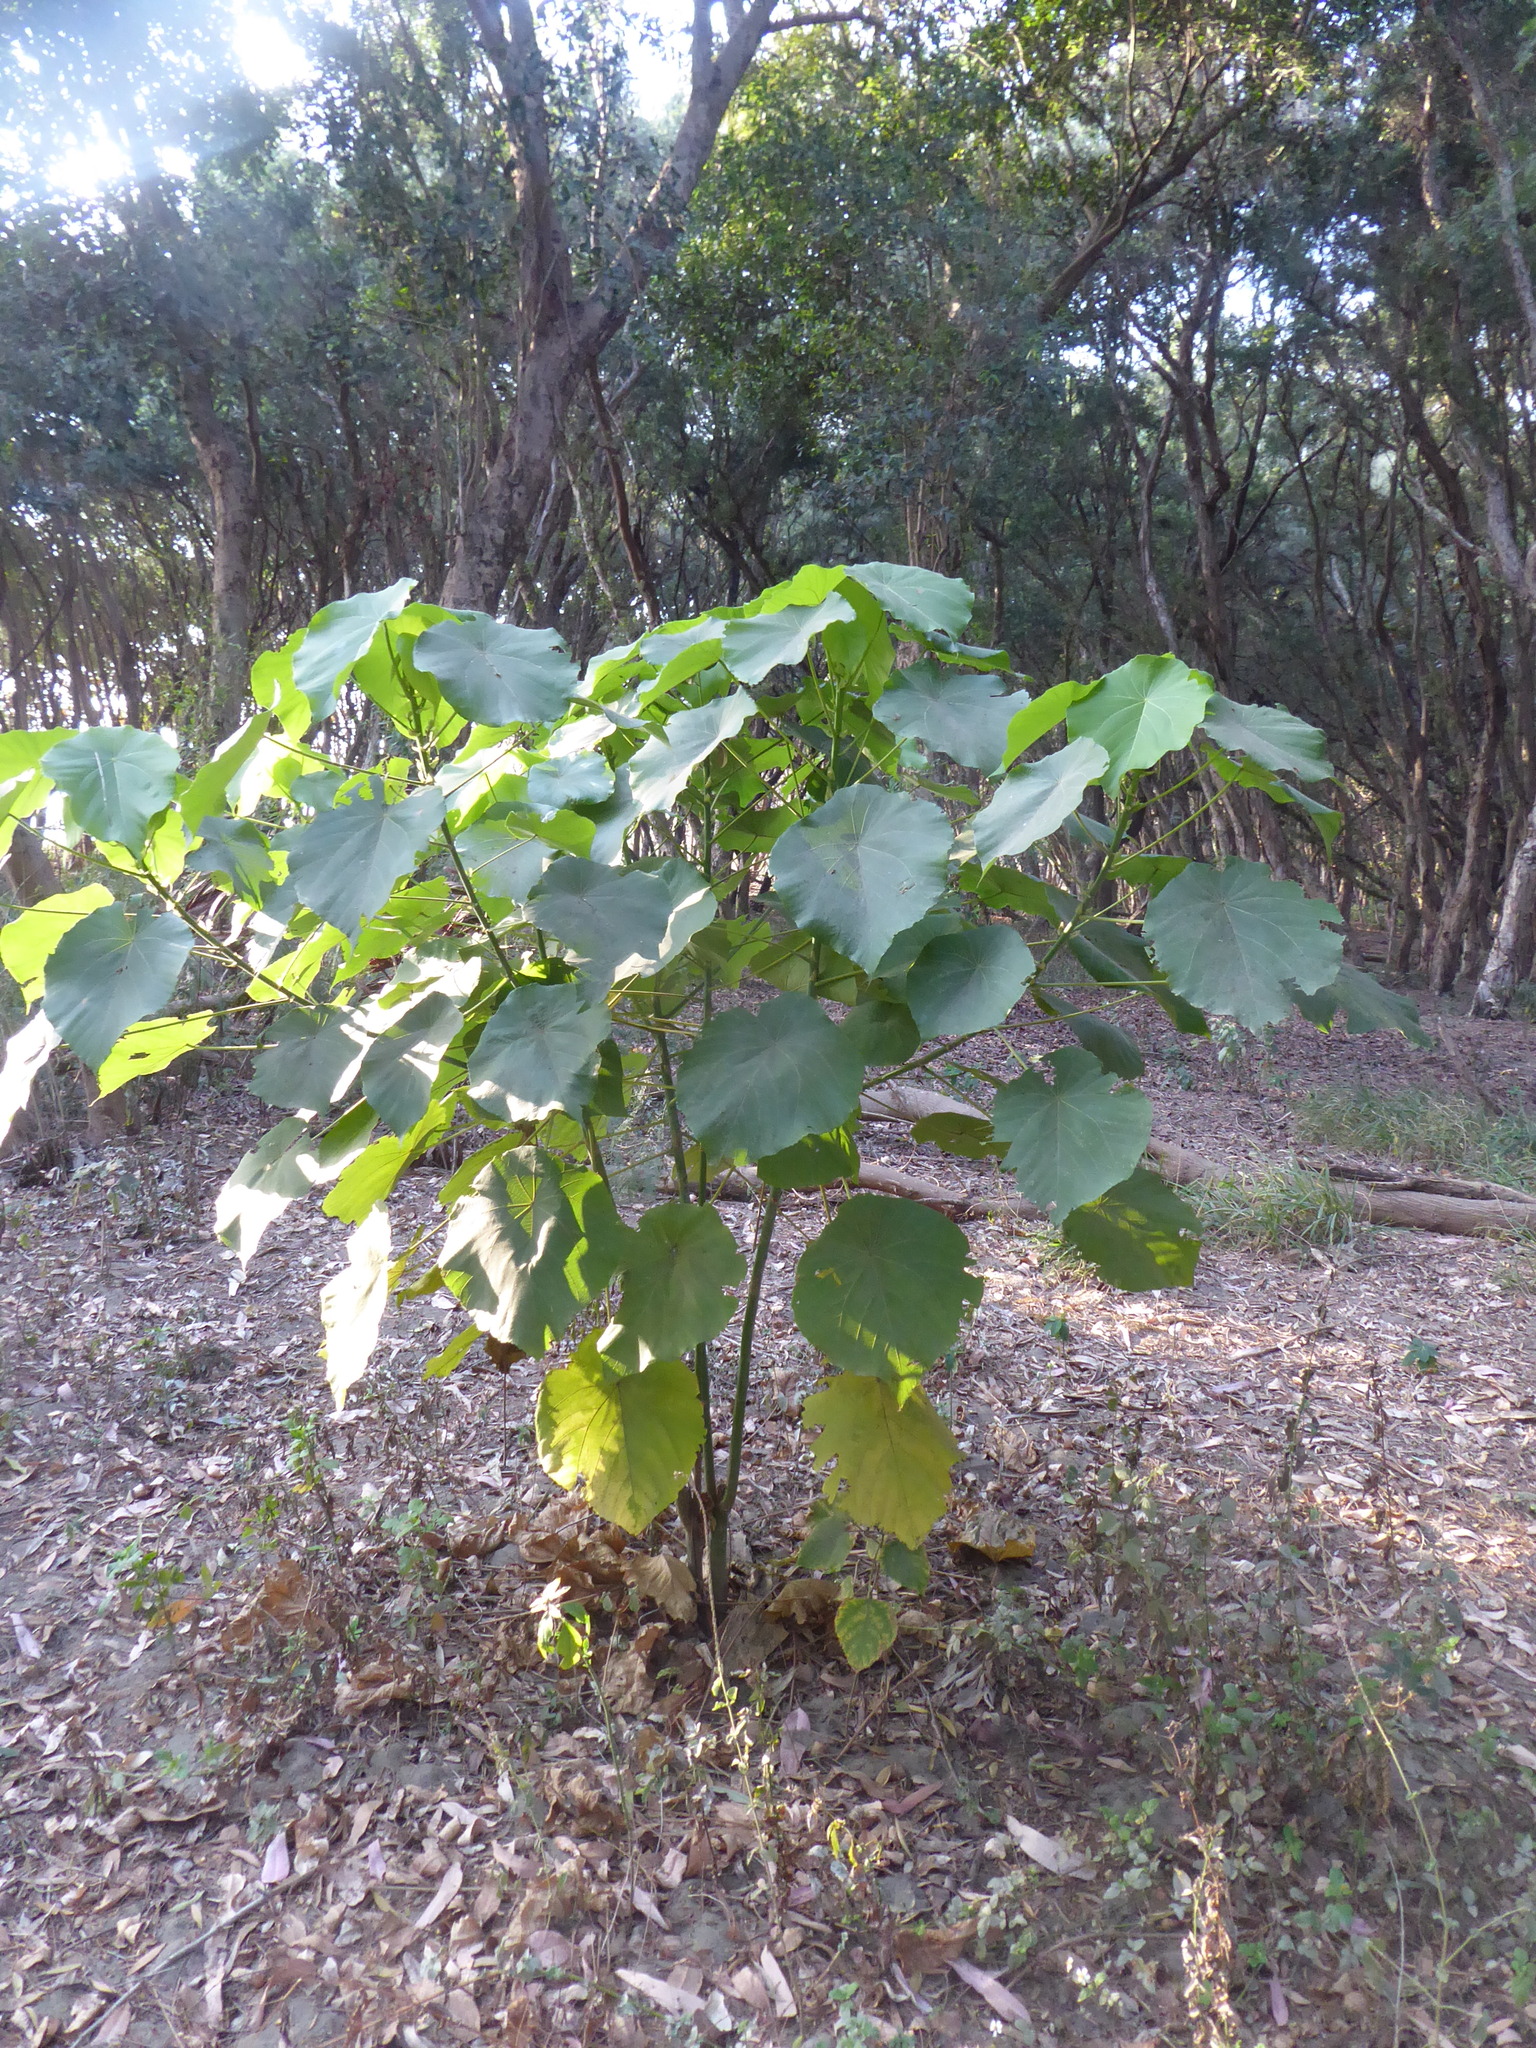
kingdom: Plantae
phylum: Tracheophyta
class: Magnoliopsida
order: Malpighiales
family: Euphorbiaceae
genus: Macaranga
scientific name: Macaranga tanarius
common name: Parasol leaf tree
